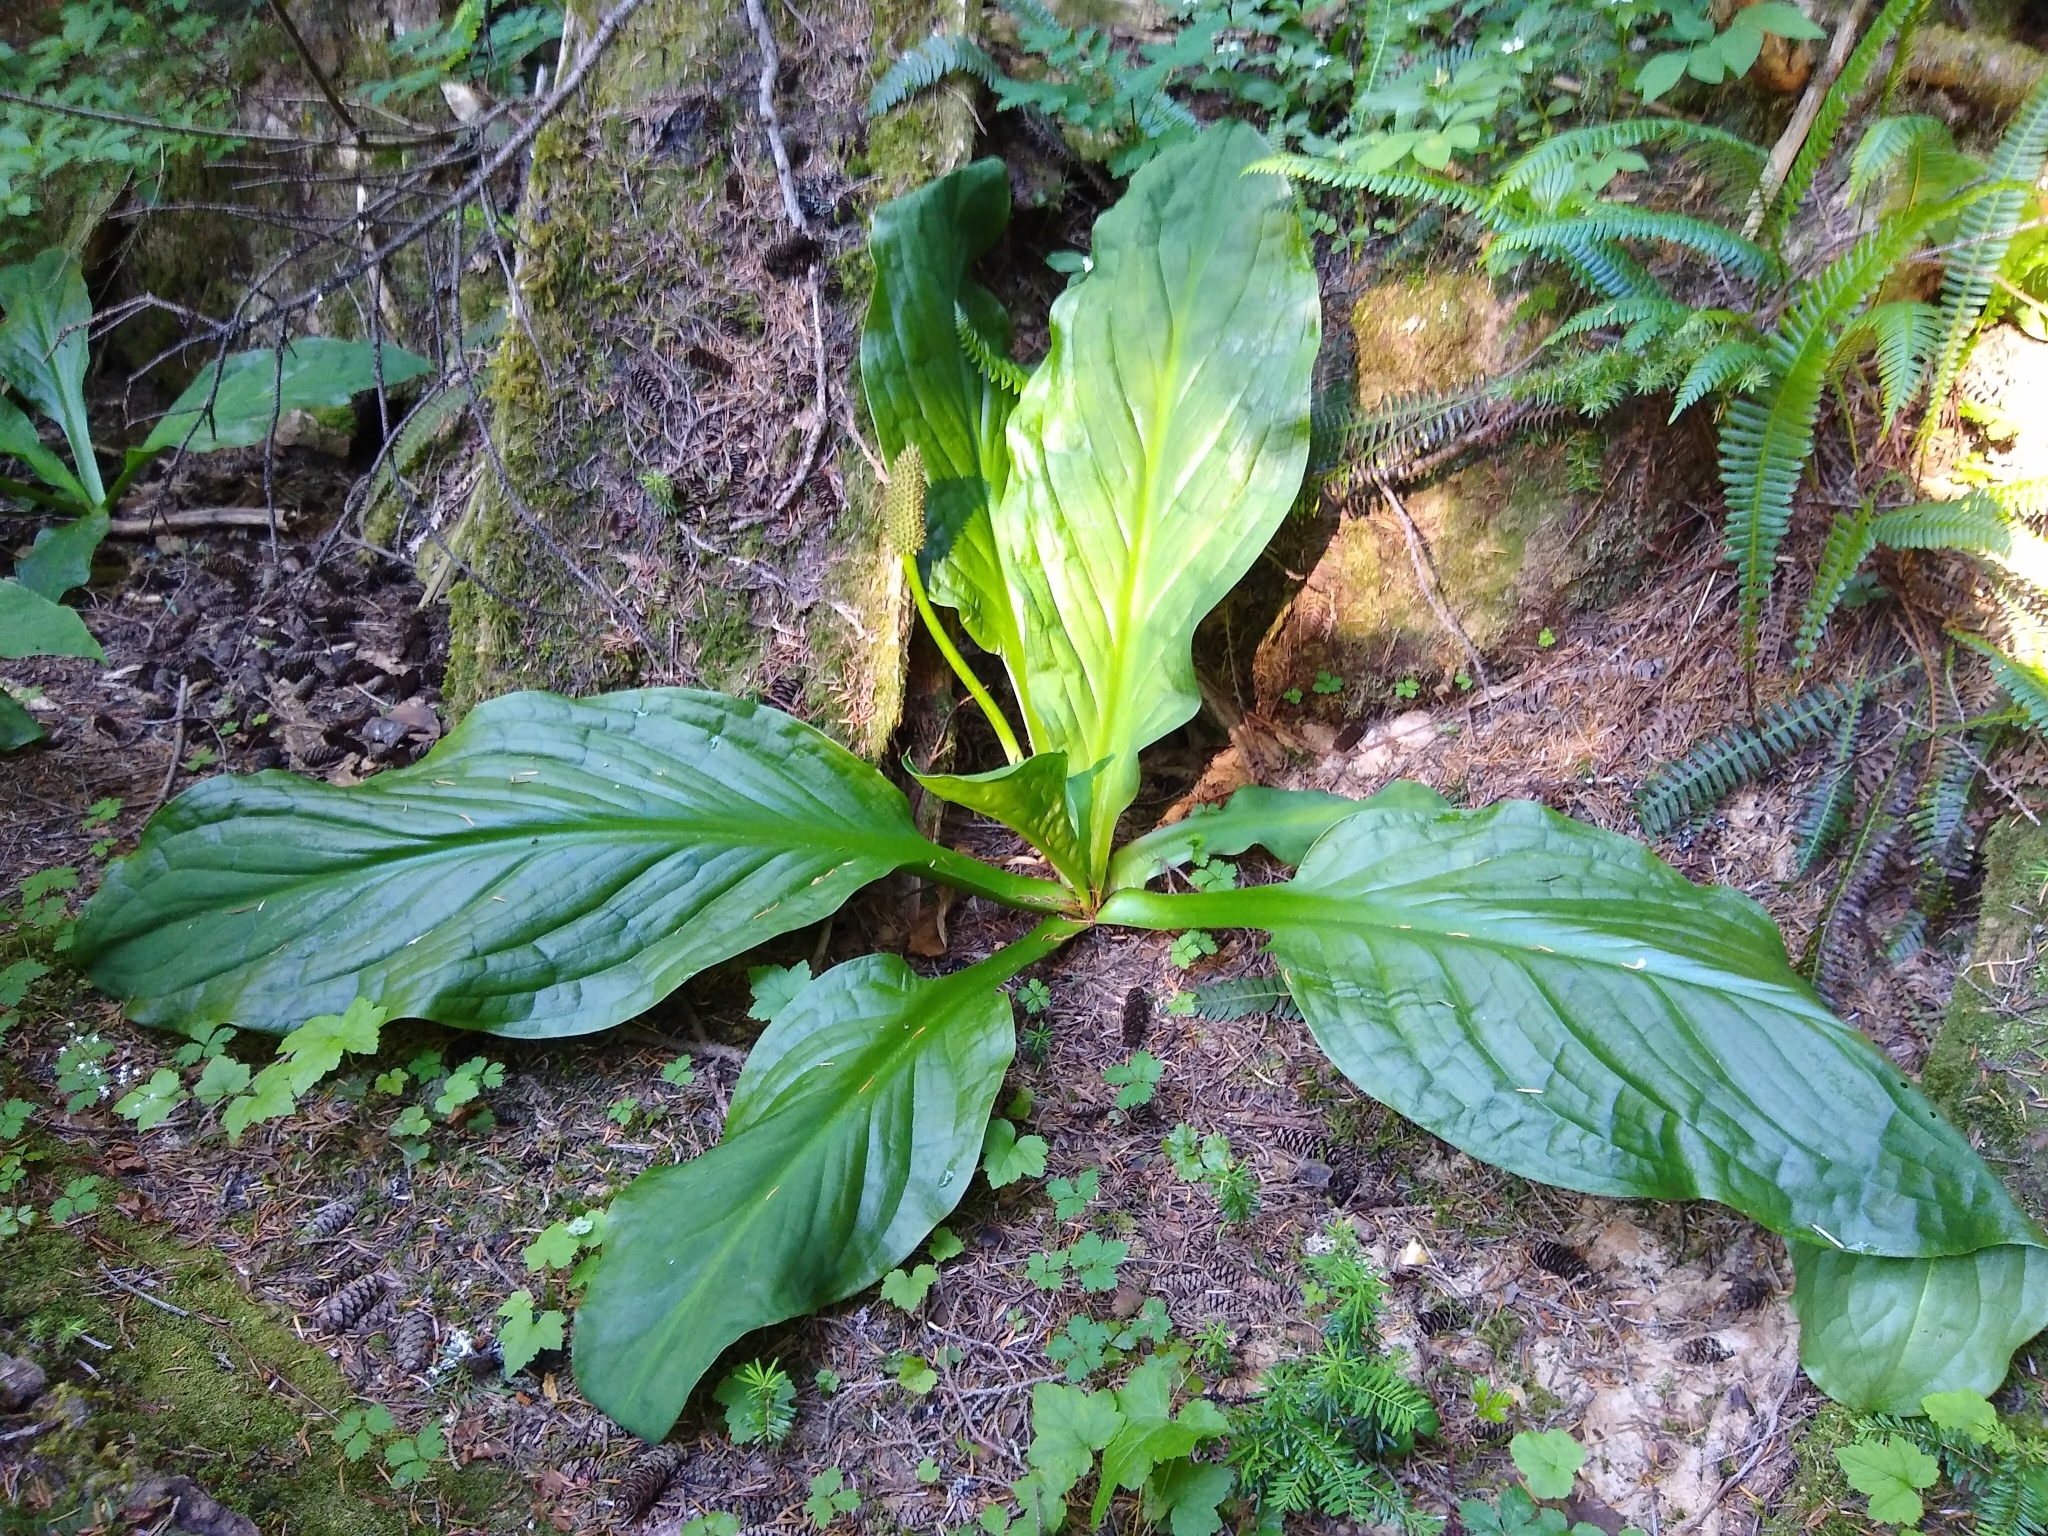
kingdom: Plantae
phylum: Tracheophyta
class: Liliopsida
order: Alismatales
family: Araceae
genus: Lysichiton
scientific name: Lysichiton americanus
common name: American skunk cabbage
